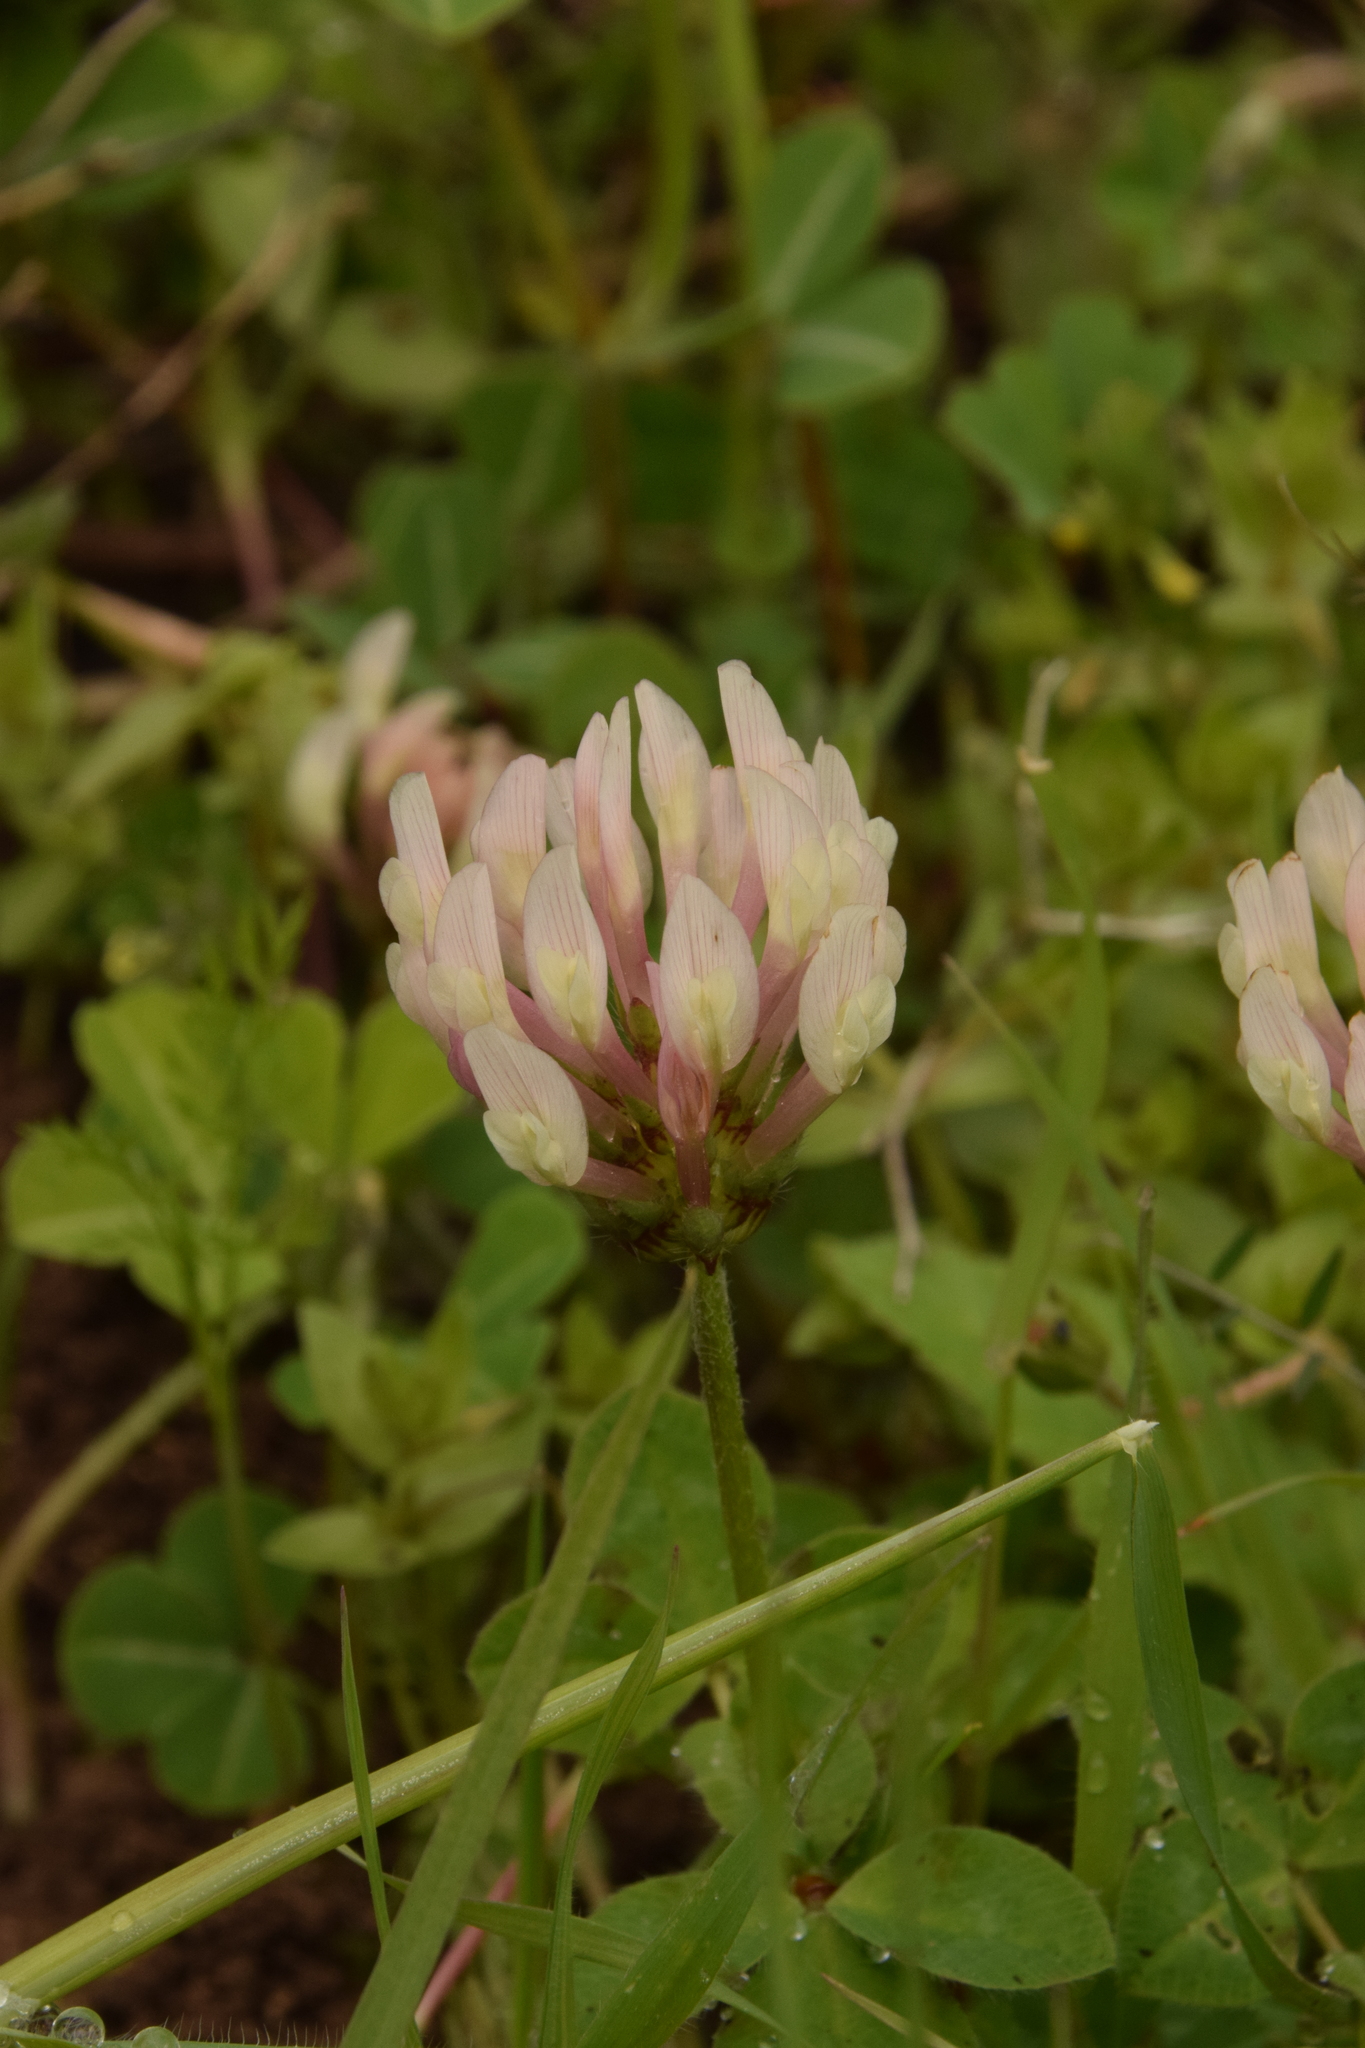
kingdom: Plantae
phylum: Tracheophyta
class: Magnoliopsida
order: Fabales
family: Fabaceae
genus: Trifolium
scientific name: Trifolium clypeatum
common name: Shield clover
